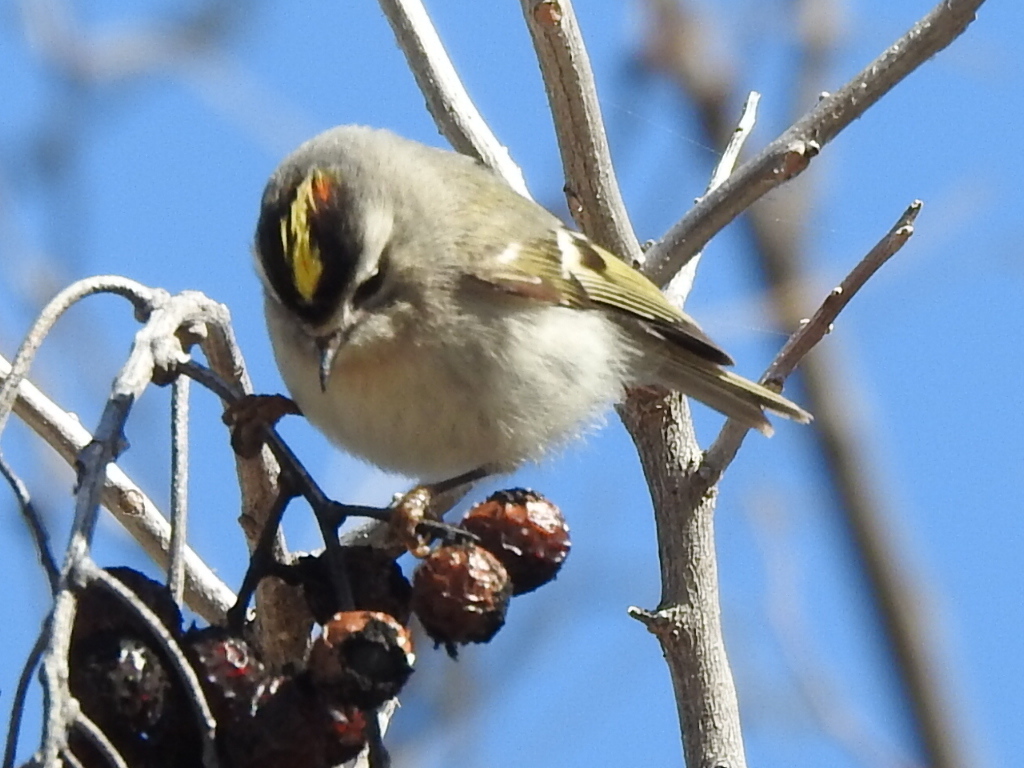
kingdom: Animalia
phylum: Chordata
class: Aves
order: Passeriformes
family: Regulidae
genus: Regulus
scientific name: Regulus satrapa
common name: Golden-crowned kinglet
